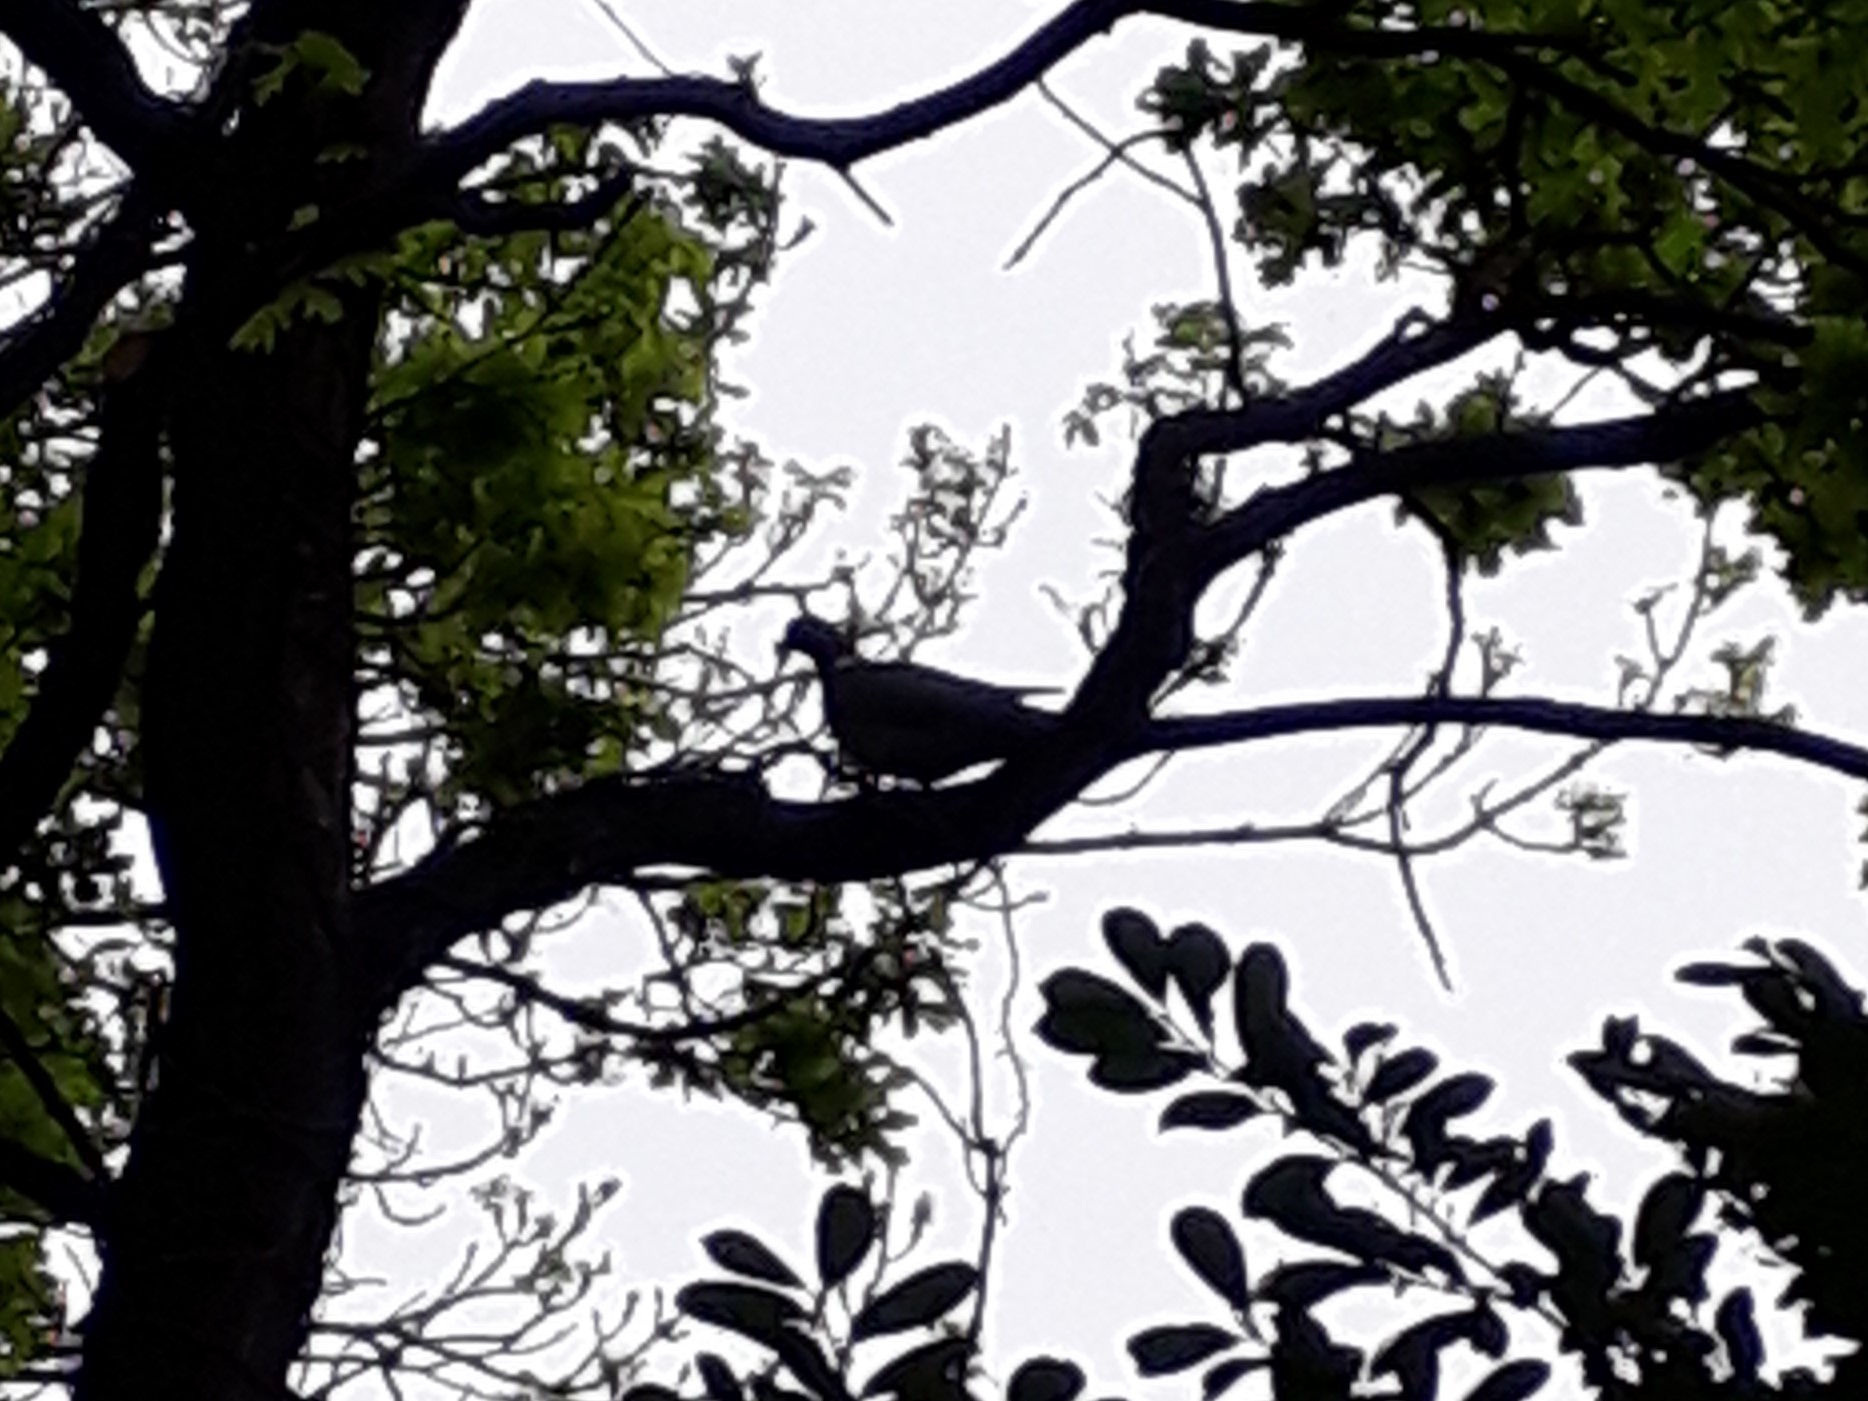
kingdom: Animalia
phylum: Chordata
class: Aves
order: Columbiformes
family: Columbidae
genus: Columba
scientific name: Columba palumbus
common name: Common wood pigeon
